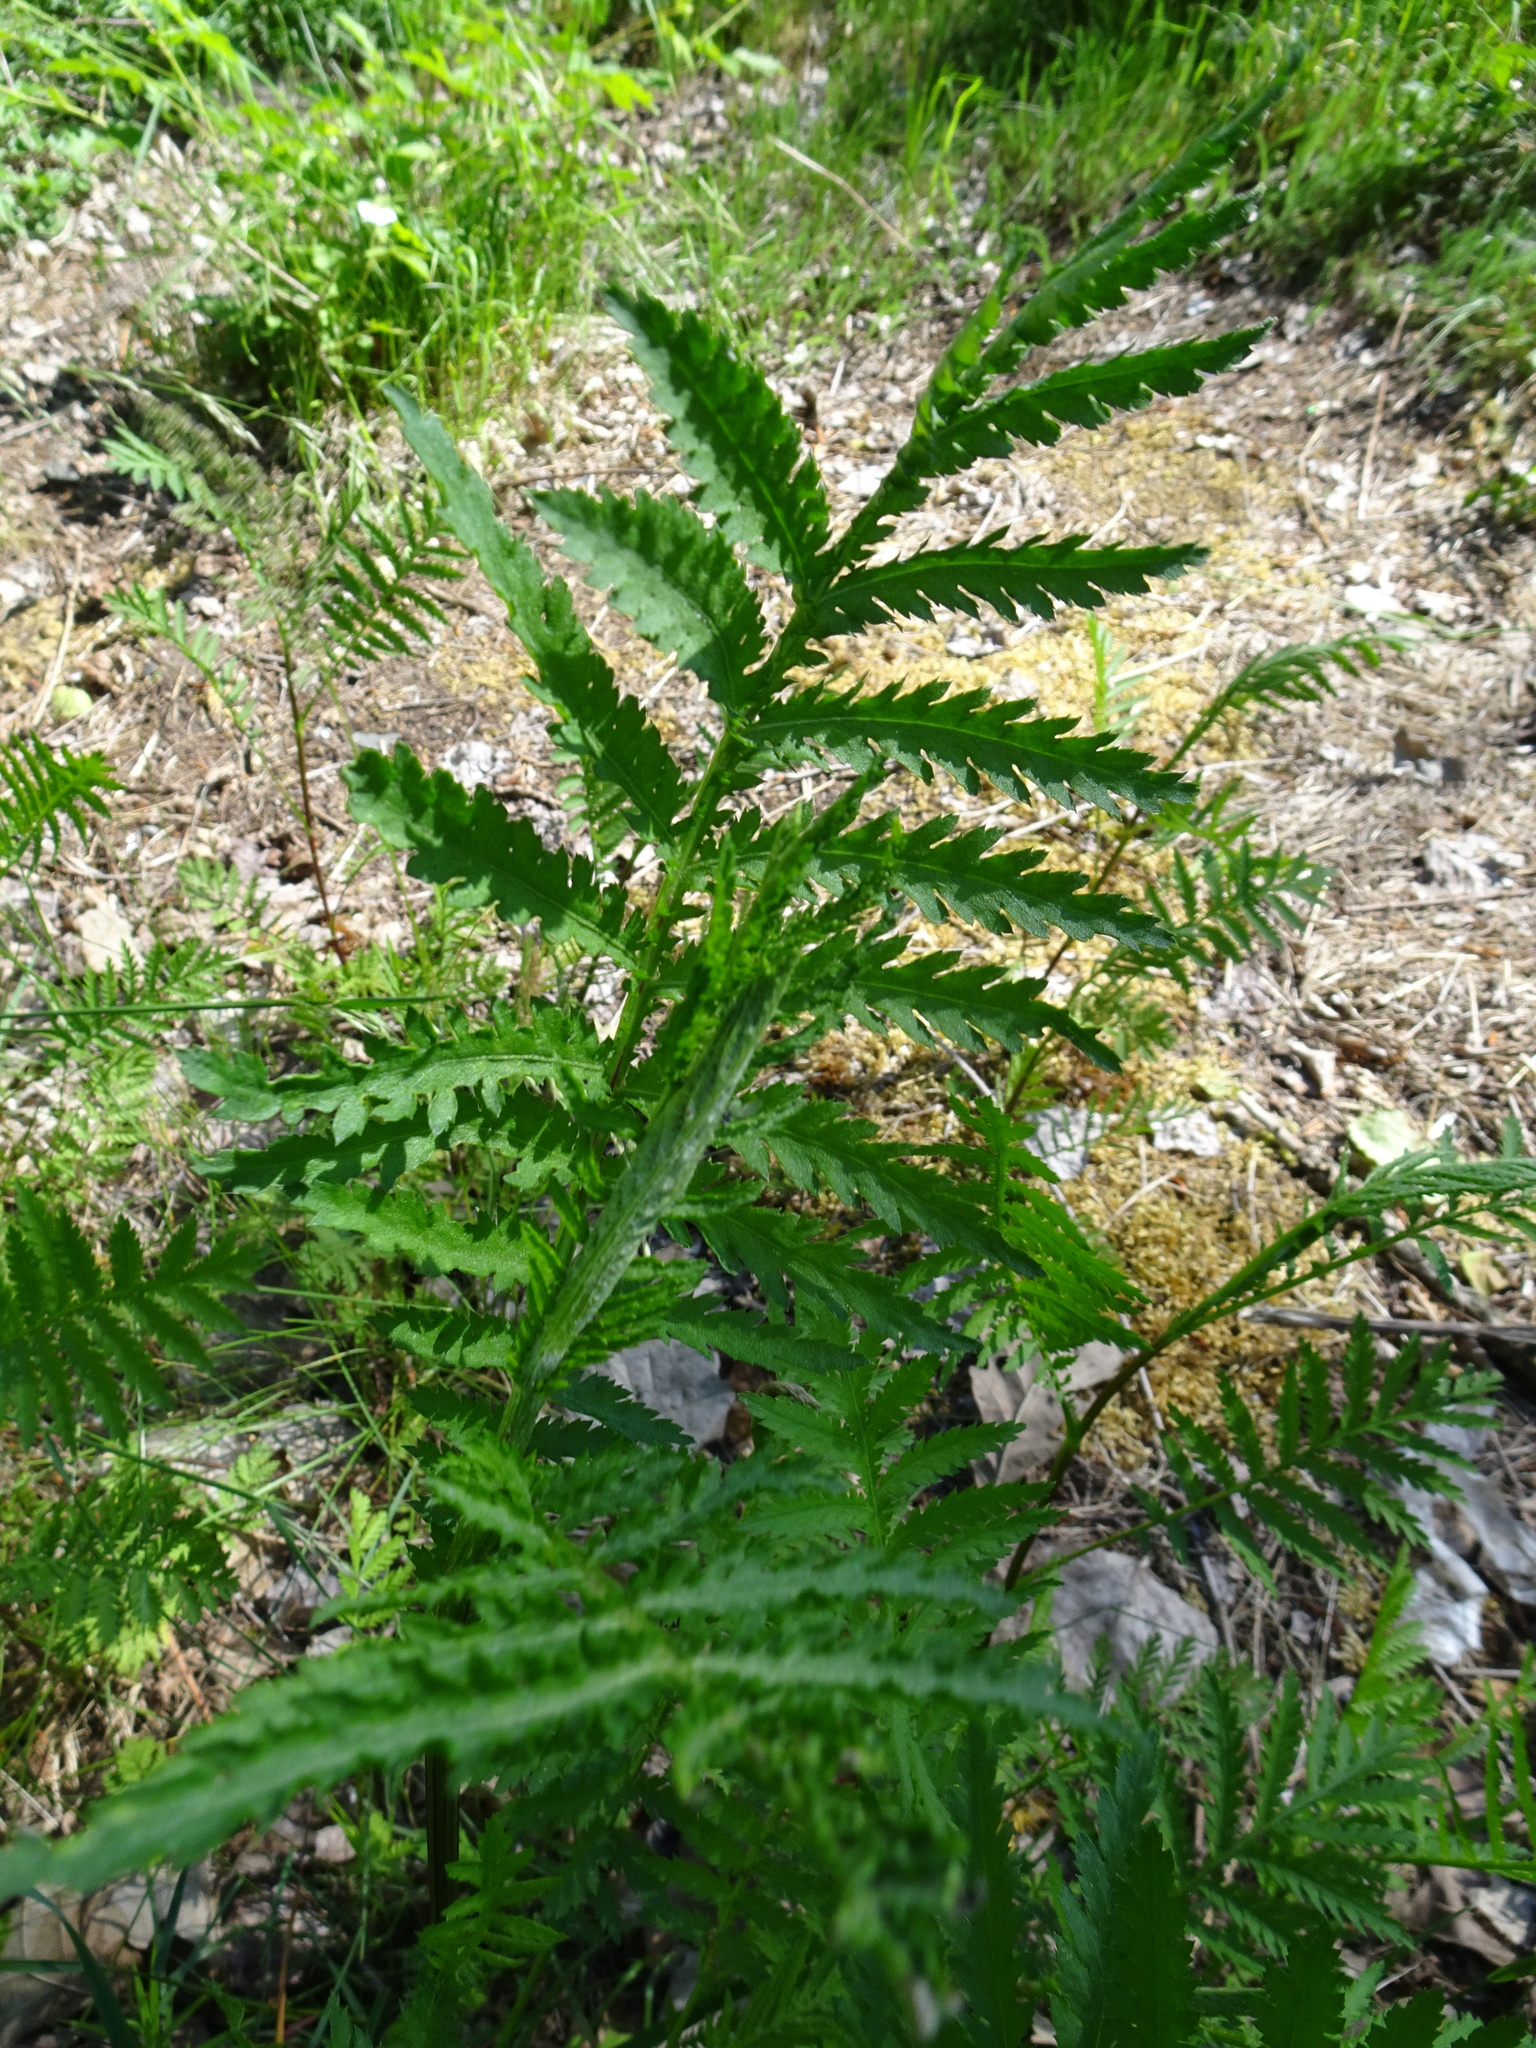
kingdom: Plantae
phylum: Tracheophyta
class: Magnoliopsida
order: Asterales
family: Asteraceae
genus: Tanacetum
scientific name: Tanacetum vulgare
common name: Common tansy
